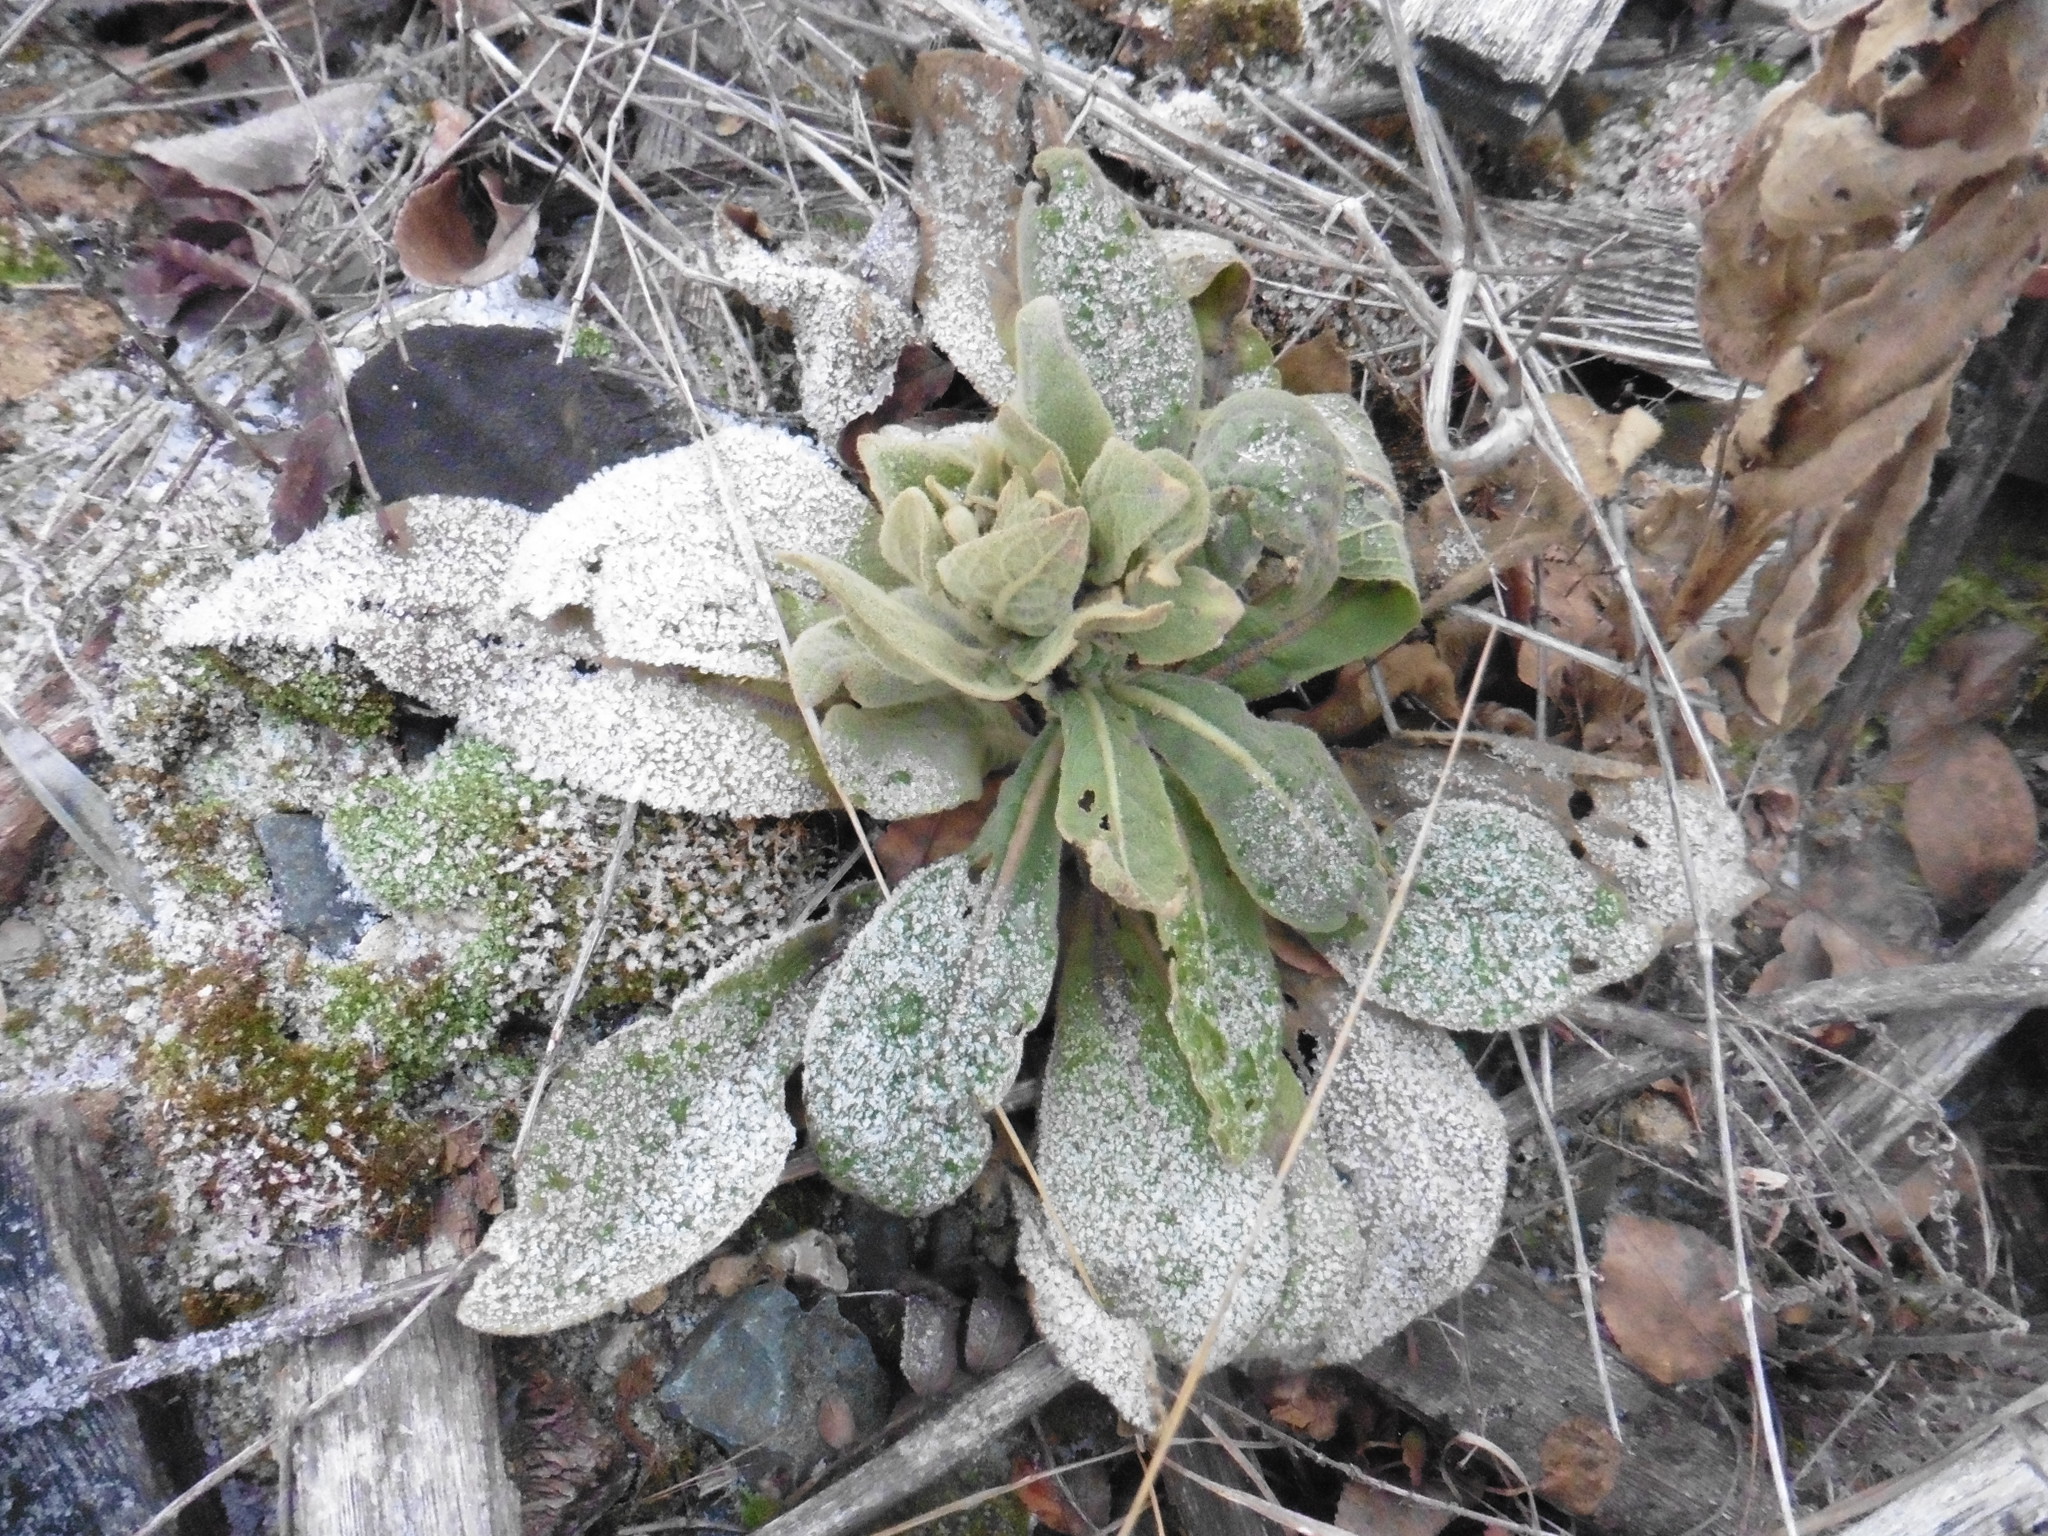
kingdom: Plantae
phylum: Tracheophyta
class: Magnoliopsida
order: Lamiales
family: Scrophulariaceae
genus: Verbascum
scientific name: Verbascum thapsus
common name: Common mullein
